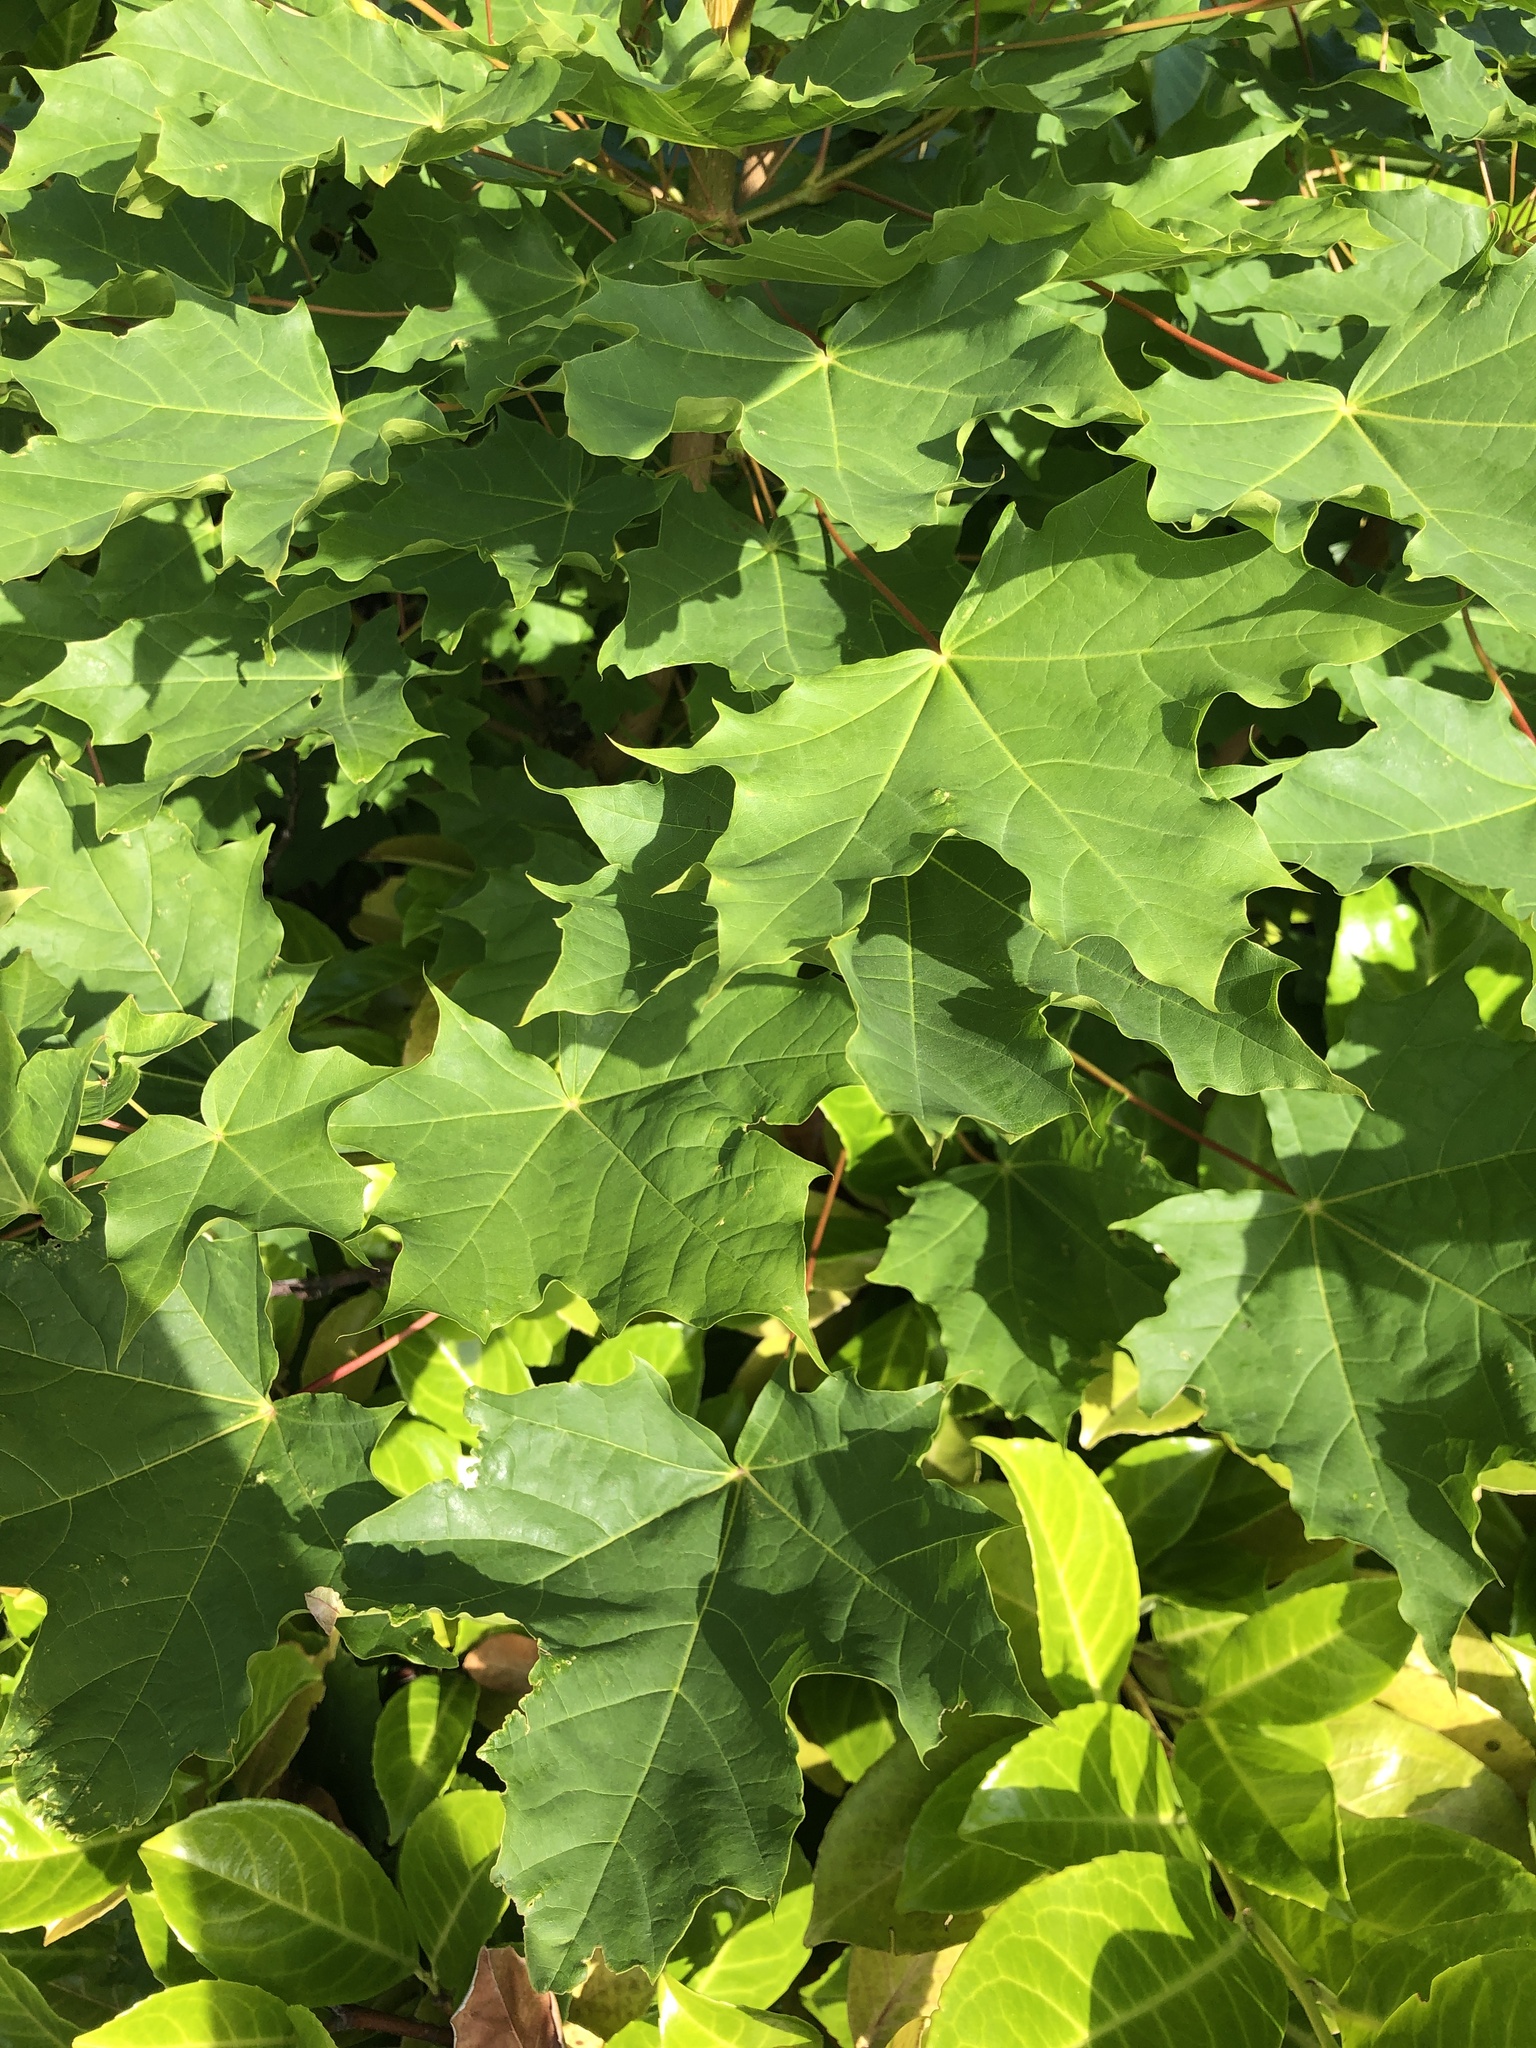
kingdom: Plantae
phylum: Tracheophyta
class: Magnoliopsida
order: Sapindales
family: Sapindaceae
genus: Acer
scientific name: Acer platanoides
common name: Norway maple
